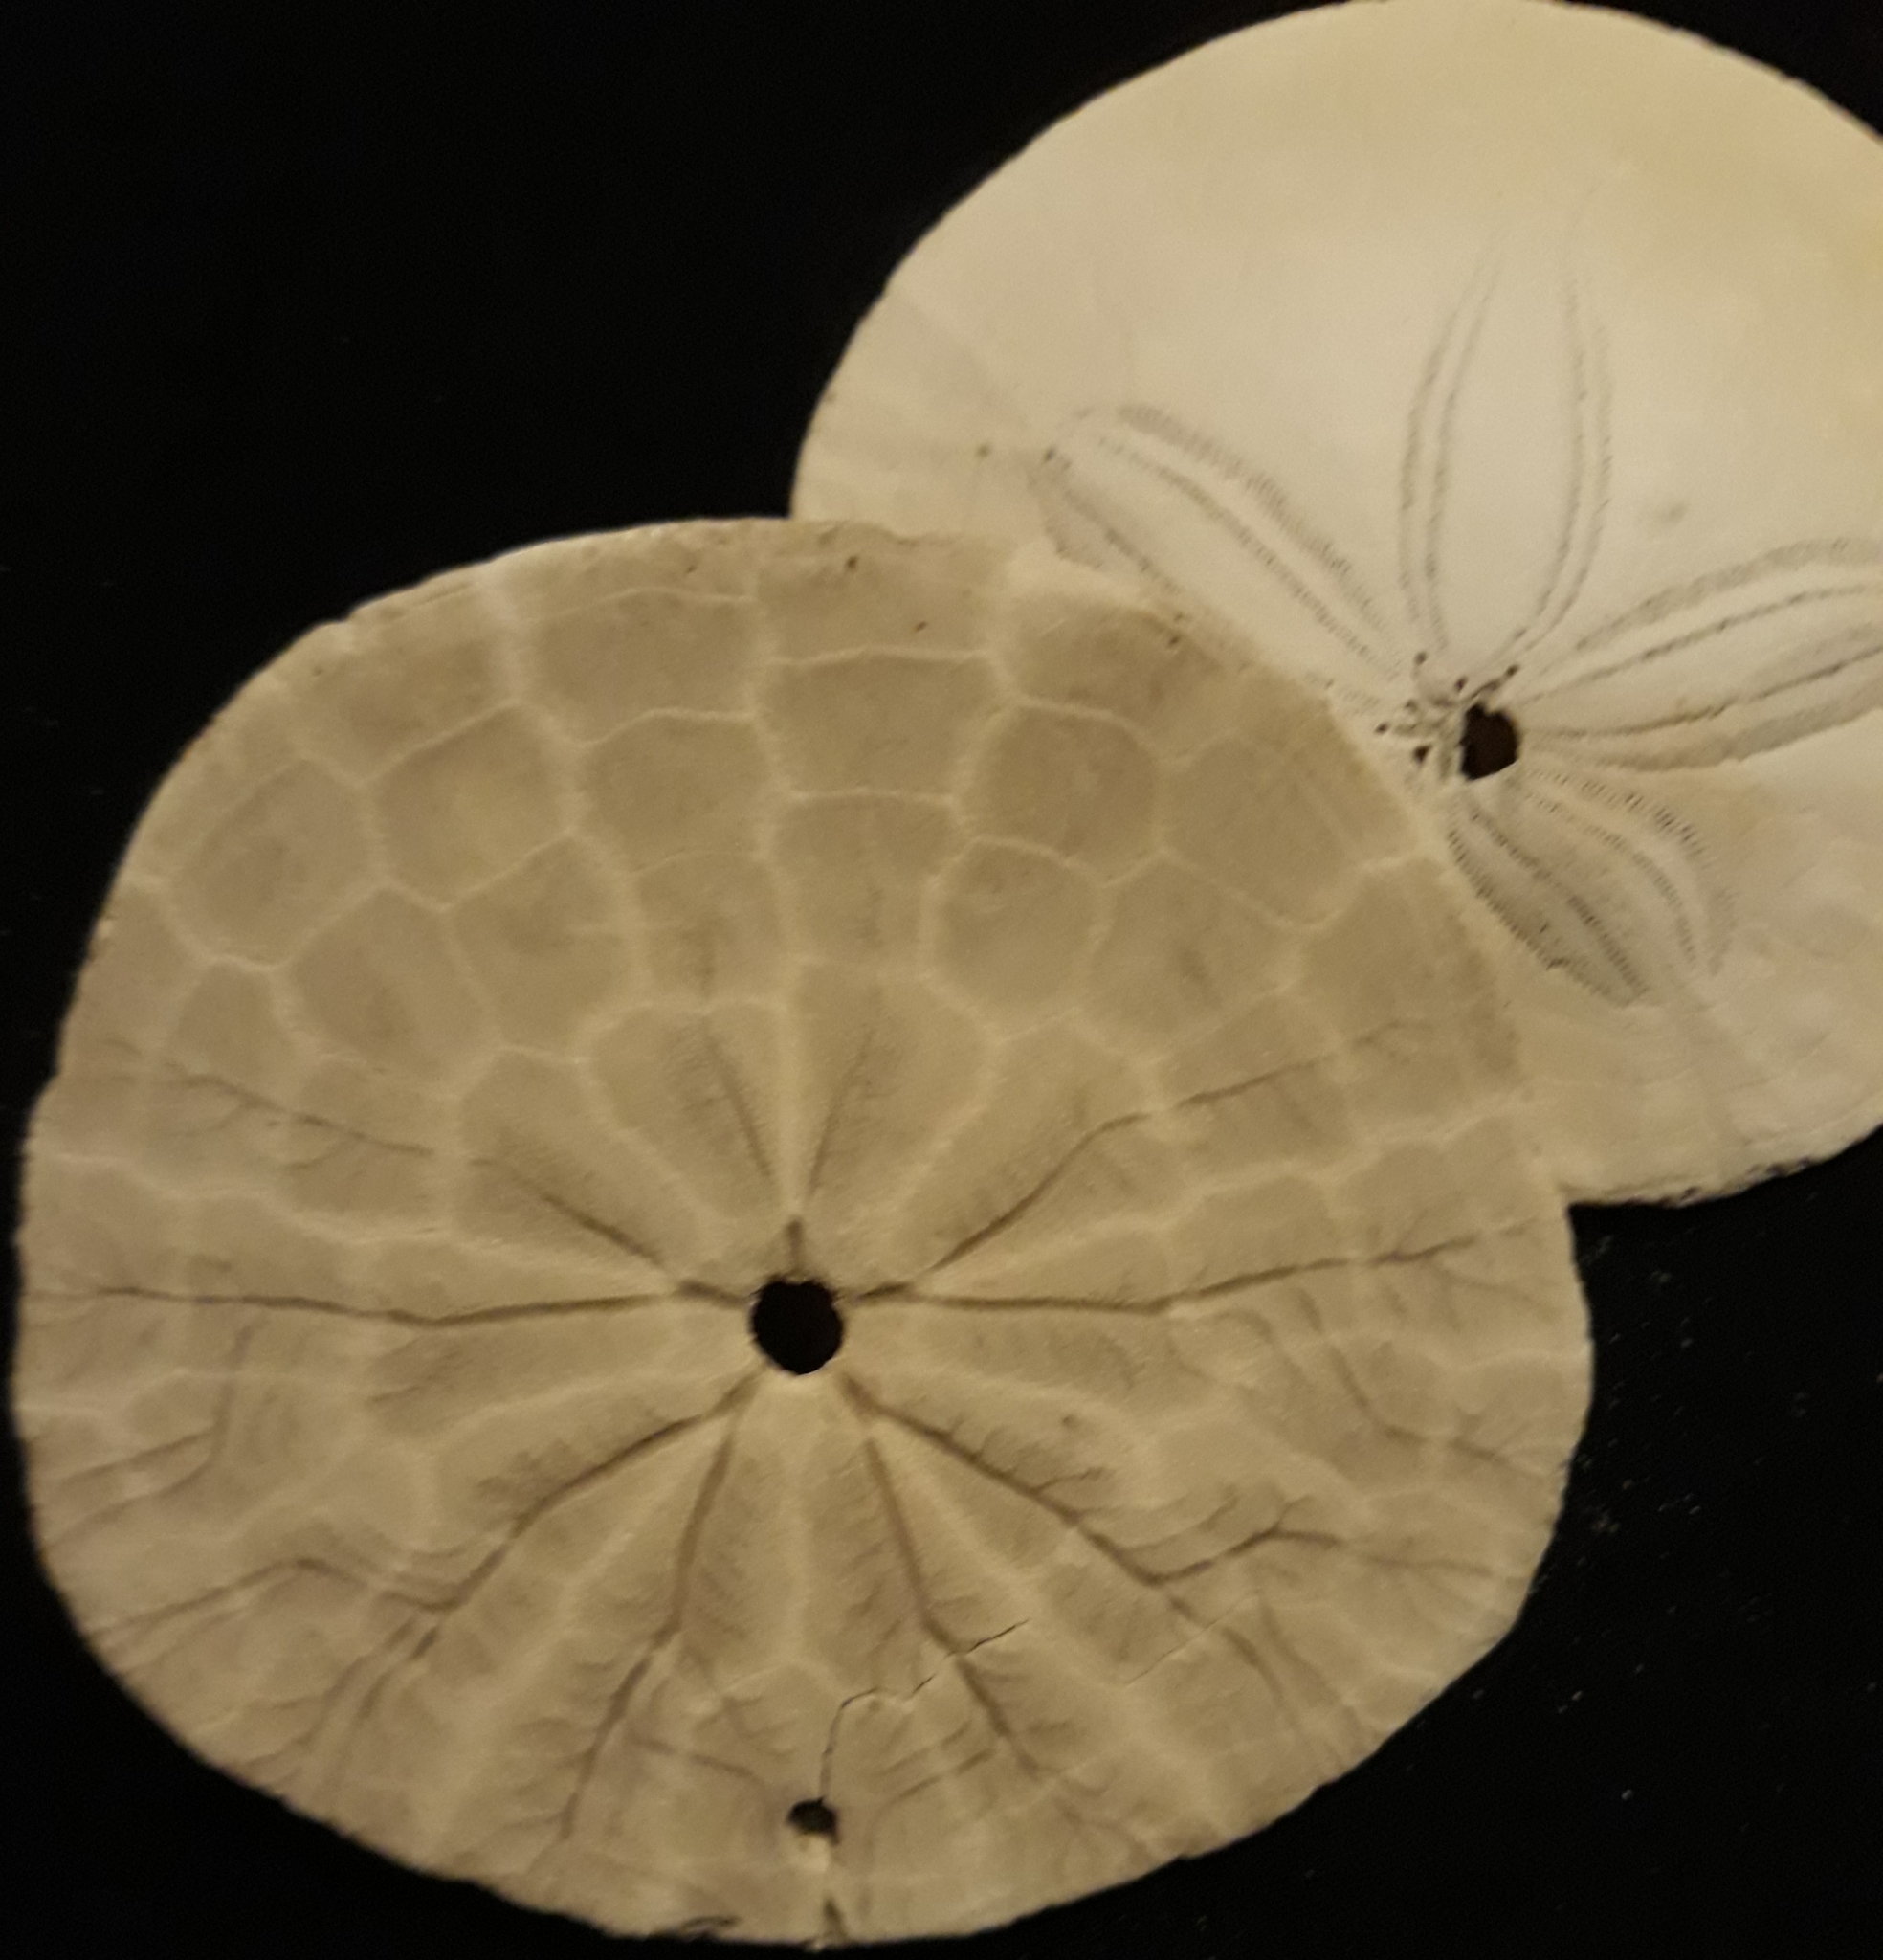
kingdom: Animalia
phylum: Echinodermata
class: Echinoidea
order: Echinolampadacea
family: Dendrasteridae
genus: Dendraster
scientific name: Dendraster excentricus
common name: Eccentric sand dollar sea urchin
